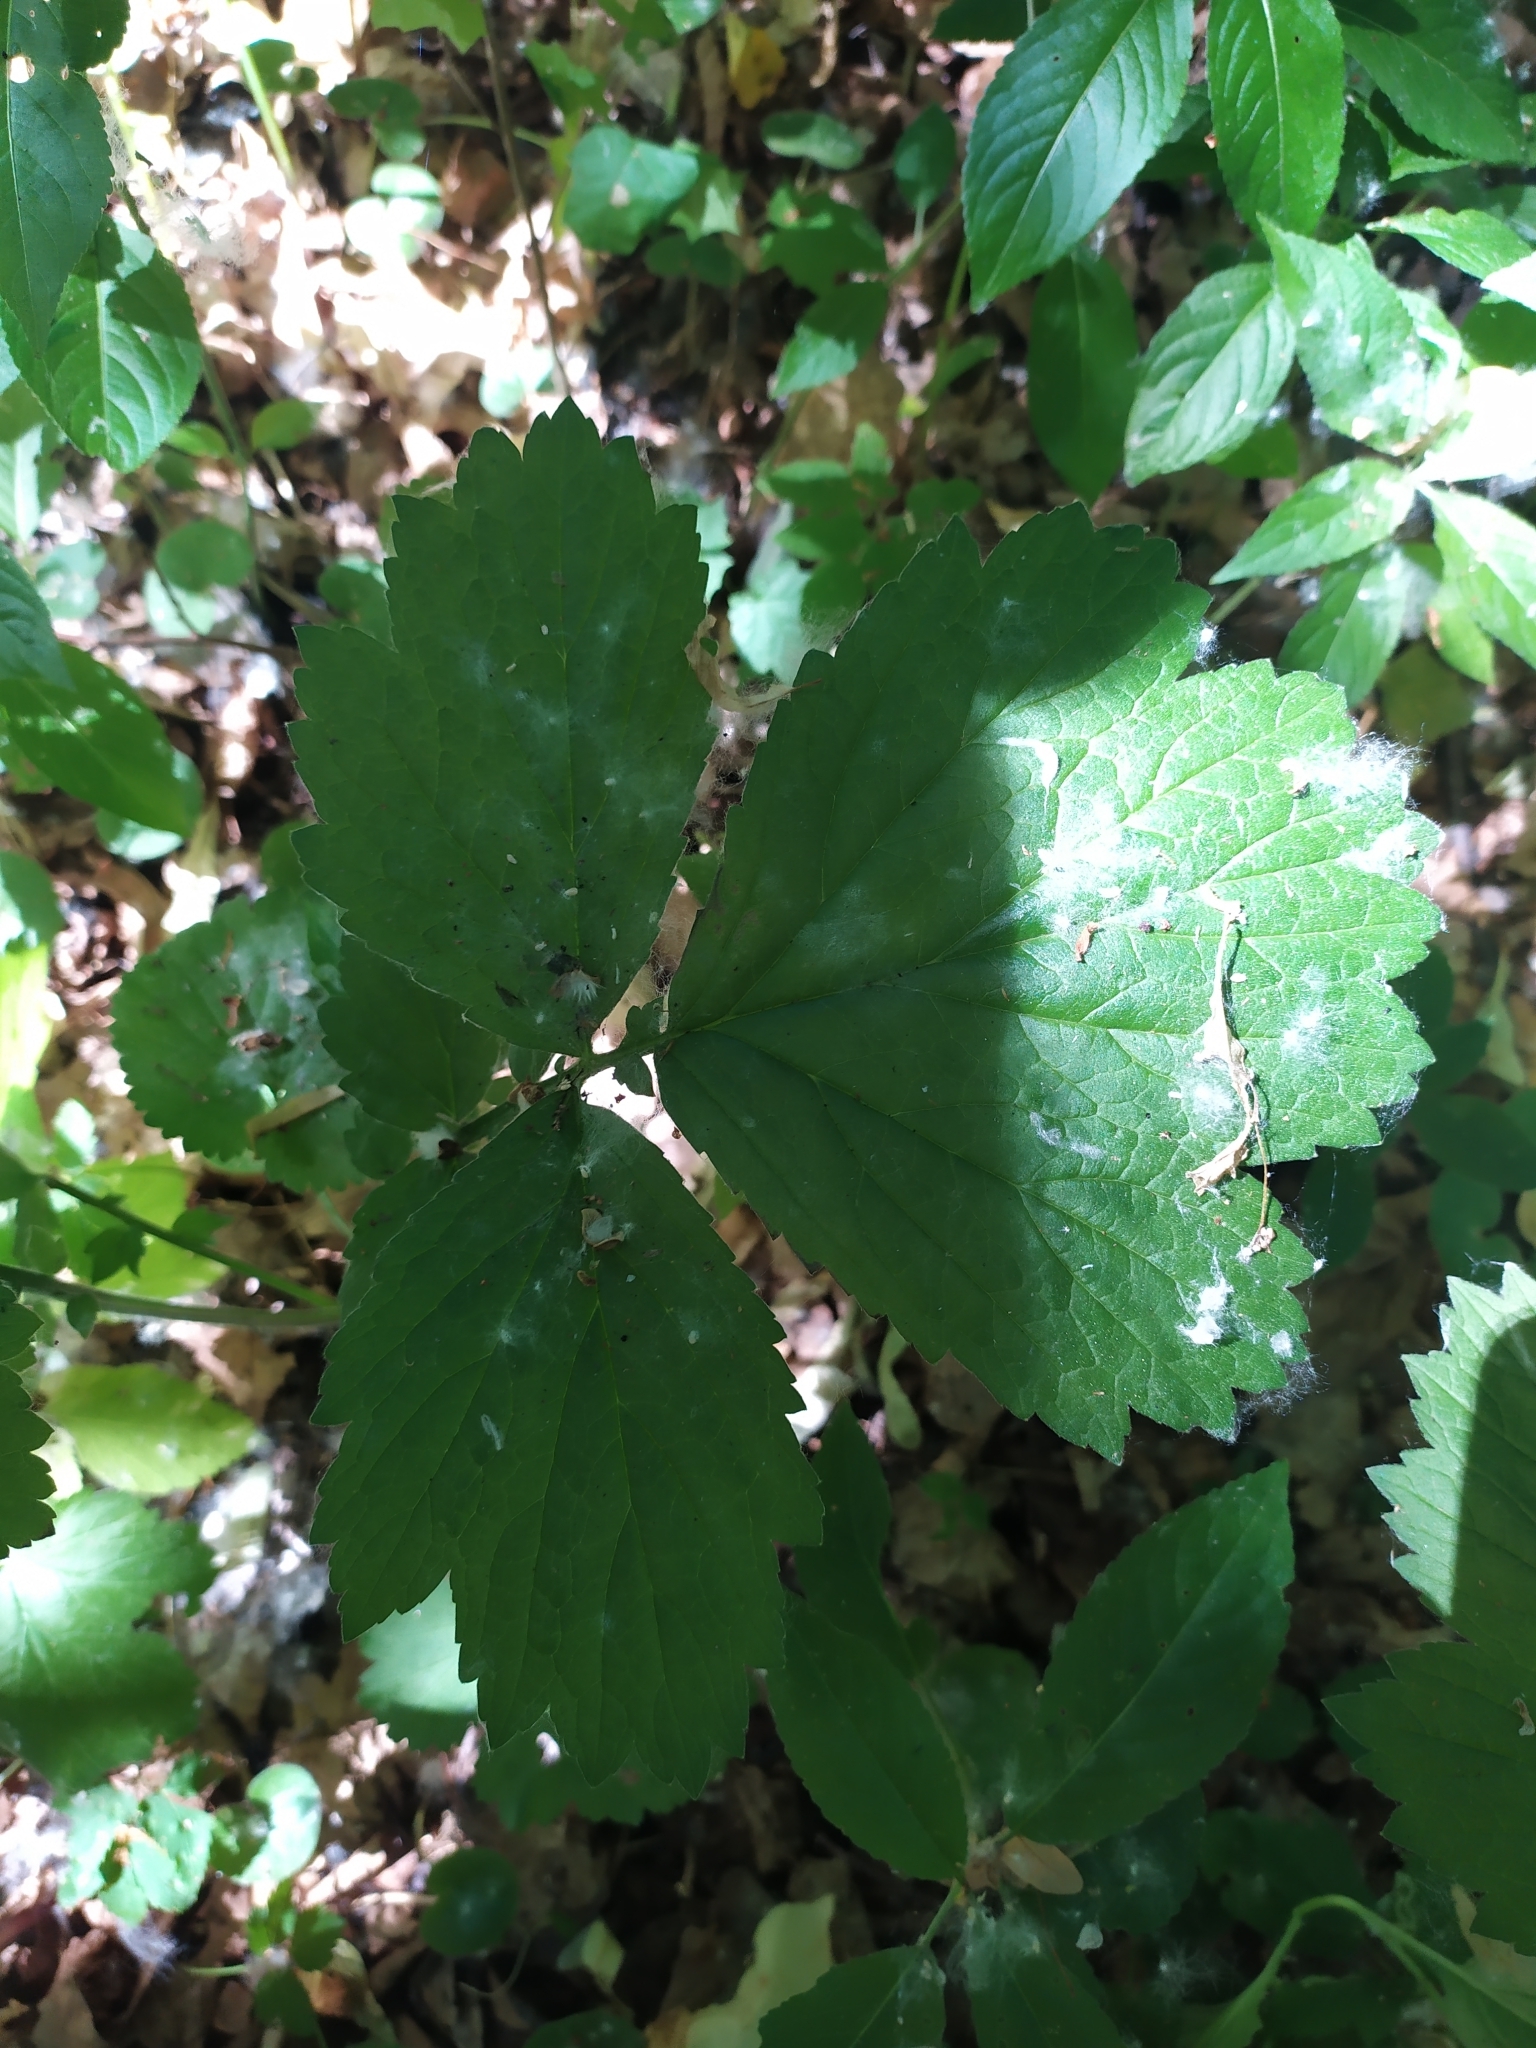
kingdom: Plantae
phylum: Tracheophyta
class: Magnoliopsida
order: Rosales
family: Rosaceae
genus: Geum
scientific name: Geum urbanum
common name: Wood avens
